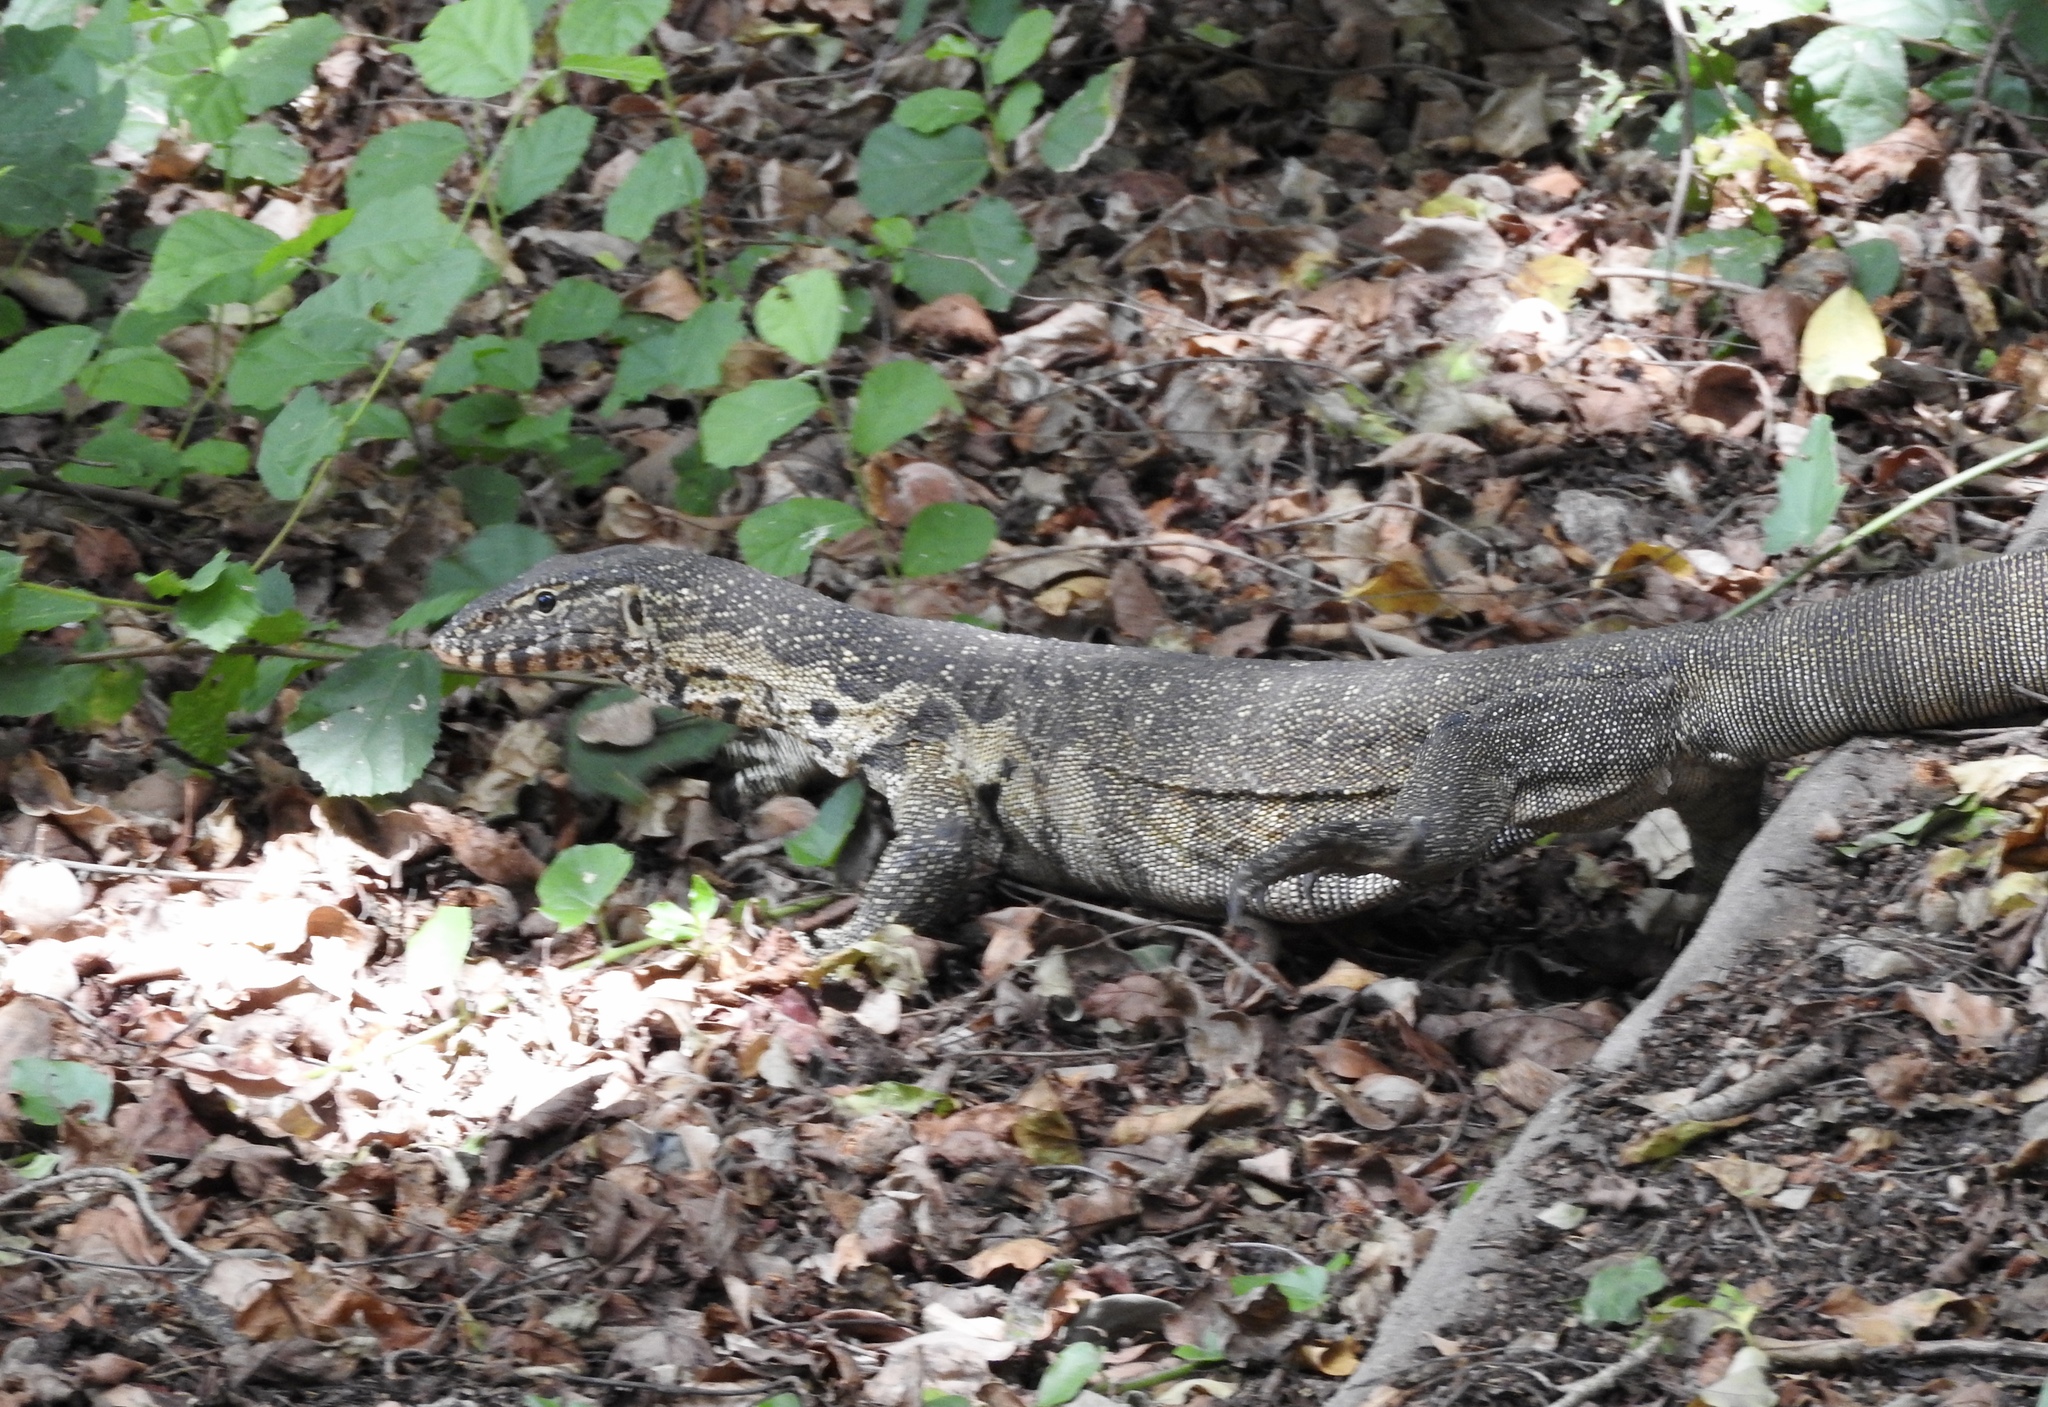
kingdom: Animalia
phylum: Chordata
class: Squamata
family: Varanidae
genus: Varanus
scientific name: Varanus niloticus
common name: Nile monitor
